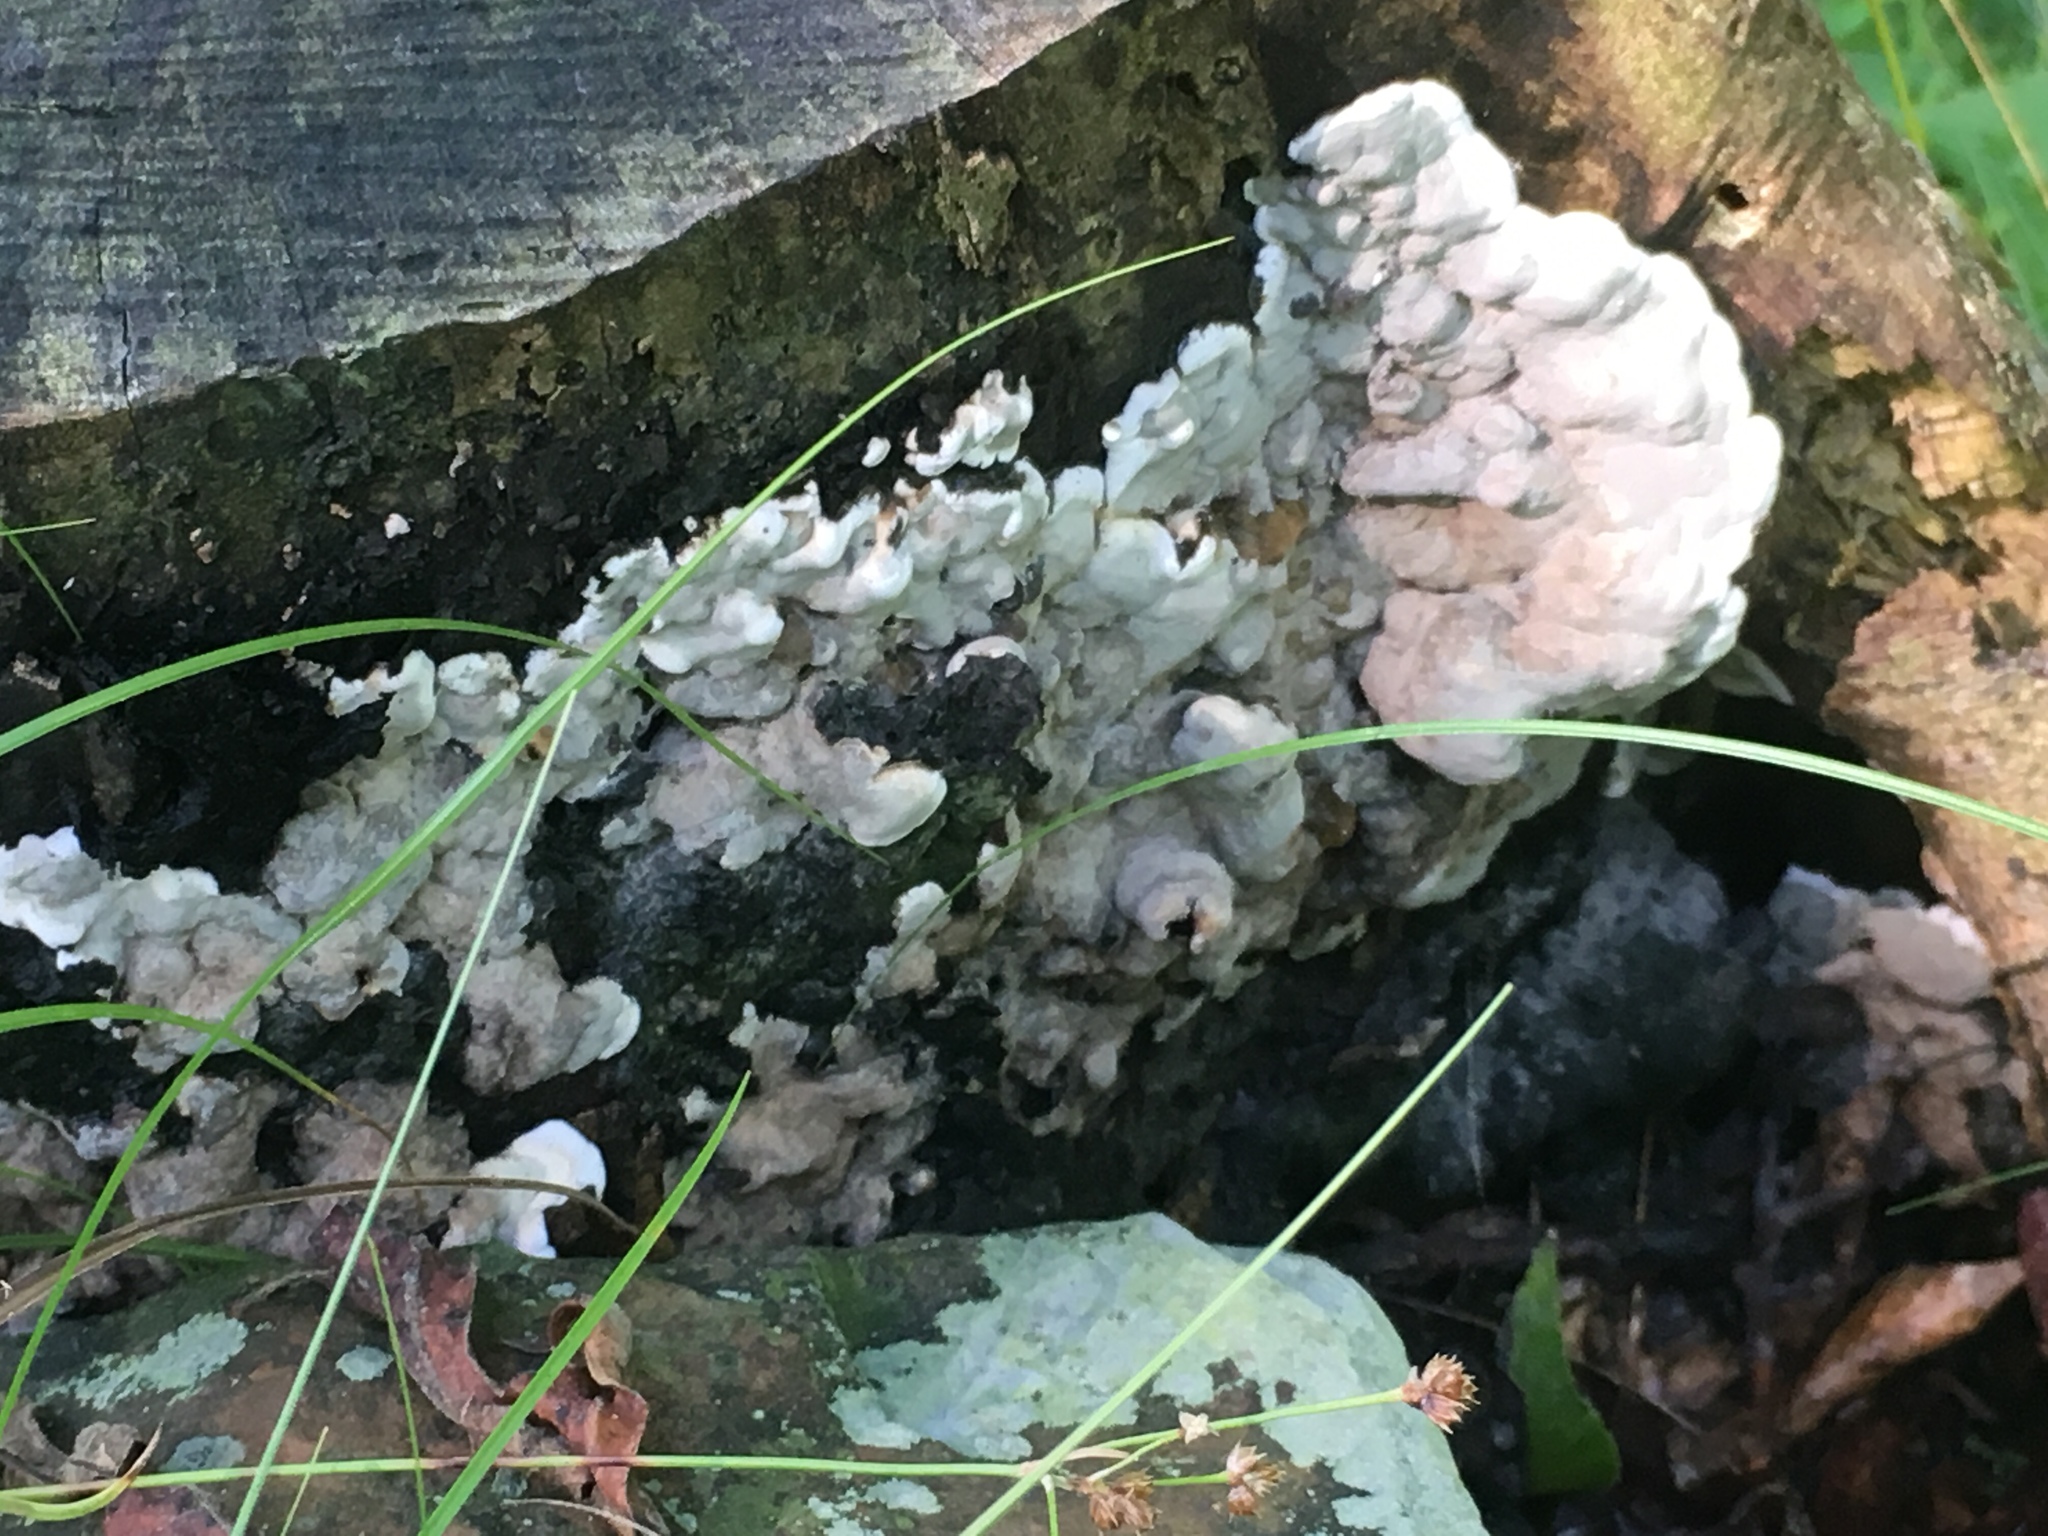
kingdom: Fungi
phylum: Ascomycota
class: Sordariomycetes
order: Xylariales
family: Xylariaceae
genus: Kretzschmaria
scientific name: Kretzschmaria deusta
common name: Brittle cinder
